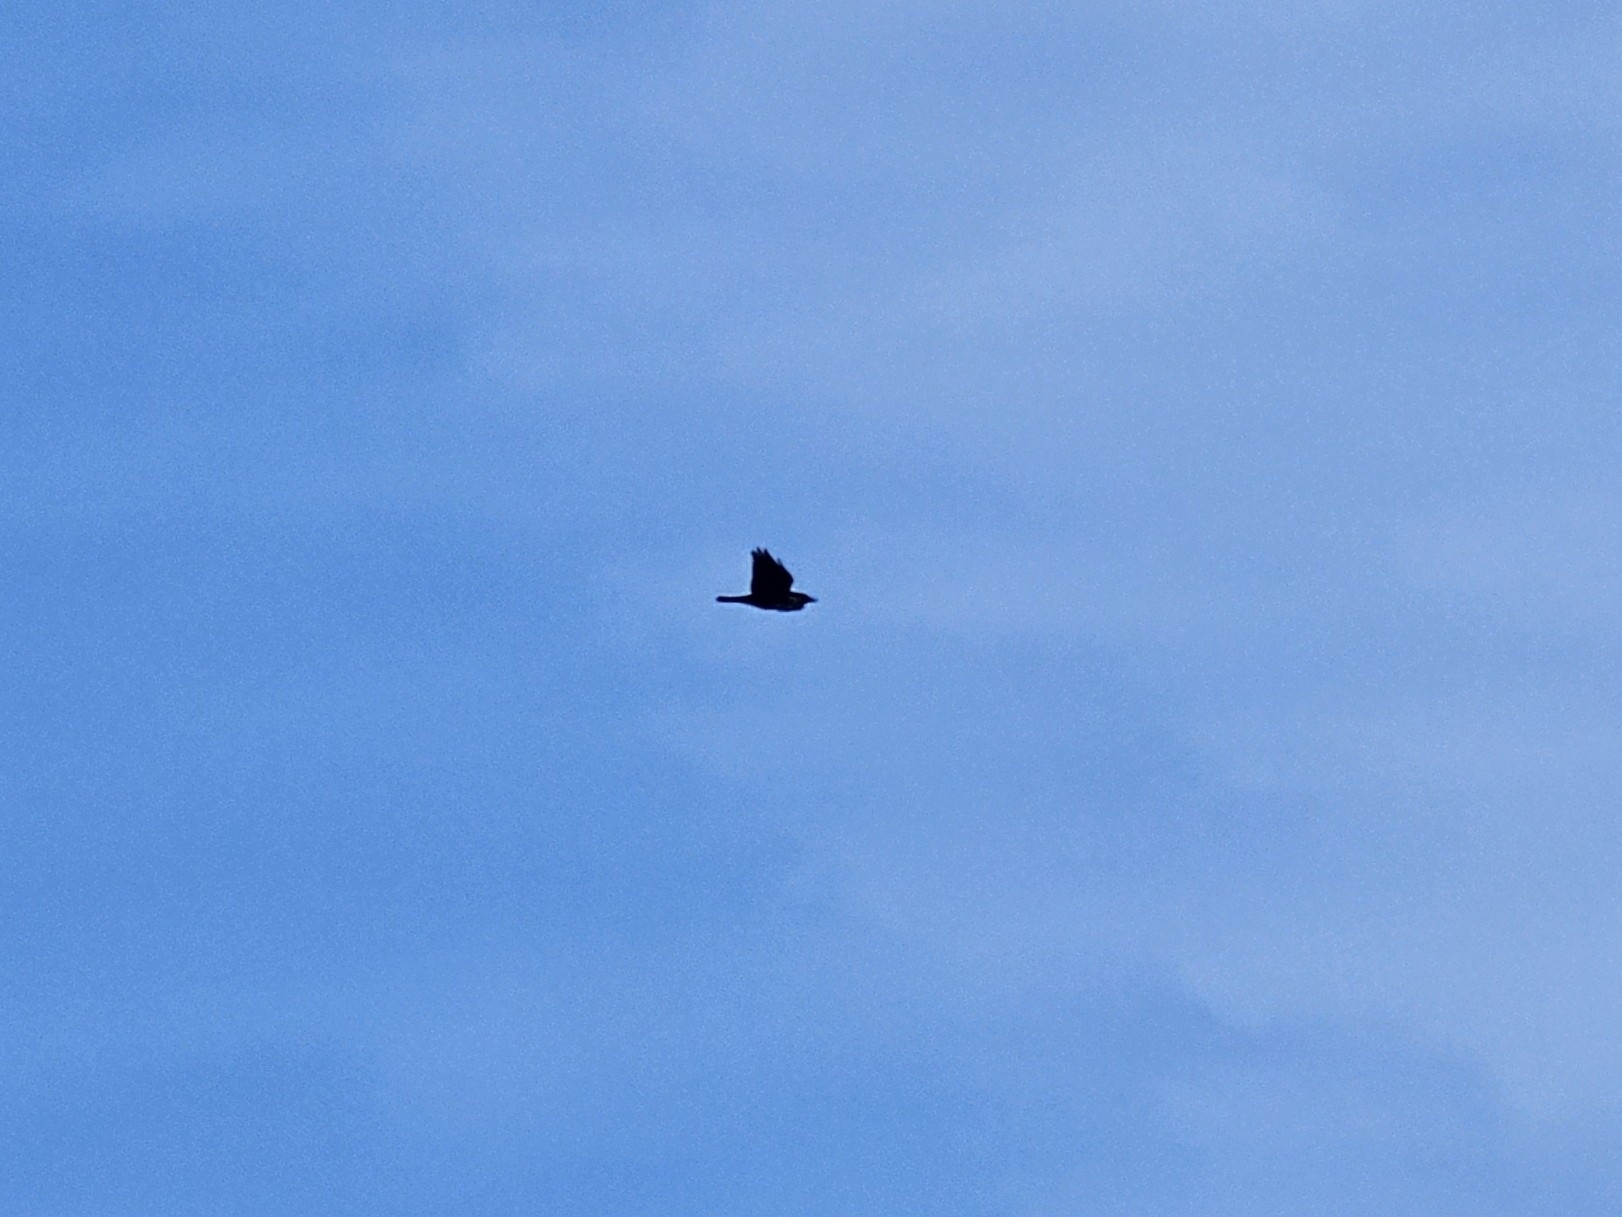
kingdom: Animalia
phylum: Chordata
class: Aves
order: Passeriformes
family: Corvidae
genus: Coloeus
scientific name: Coloeus monedula
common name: Western jackdaw
